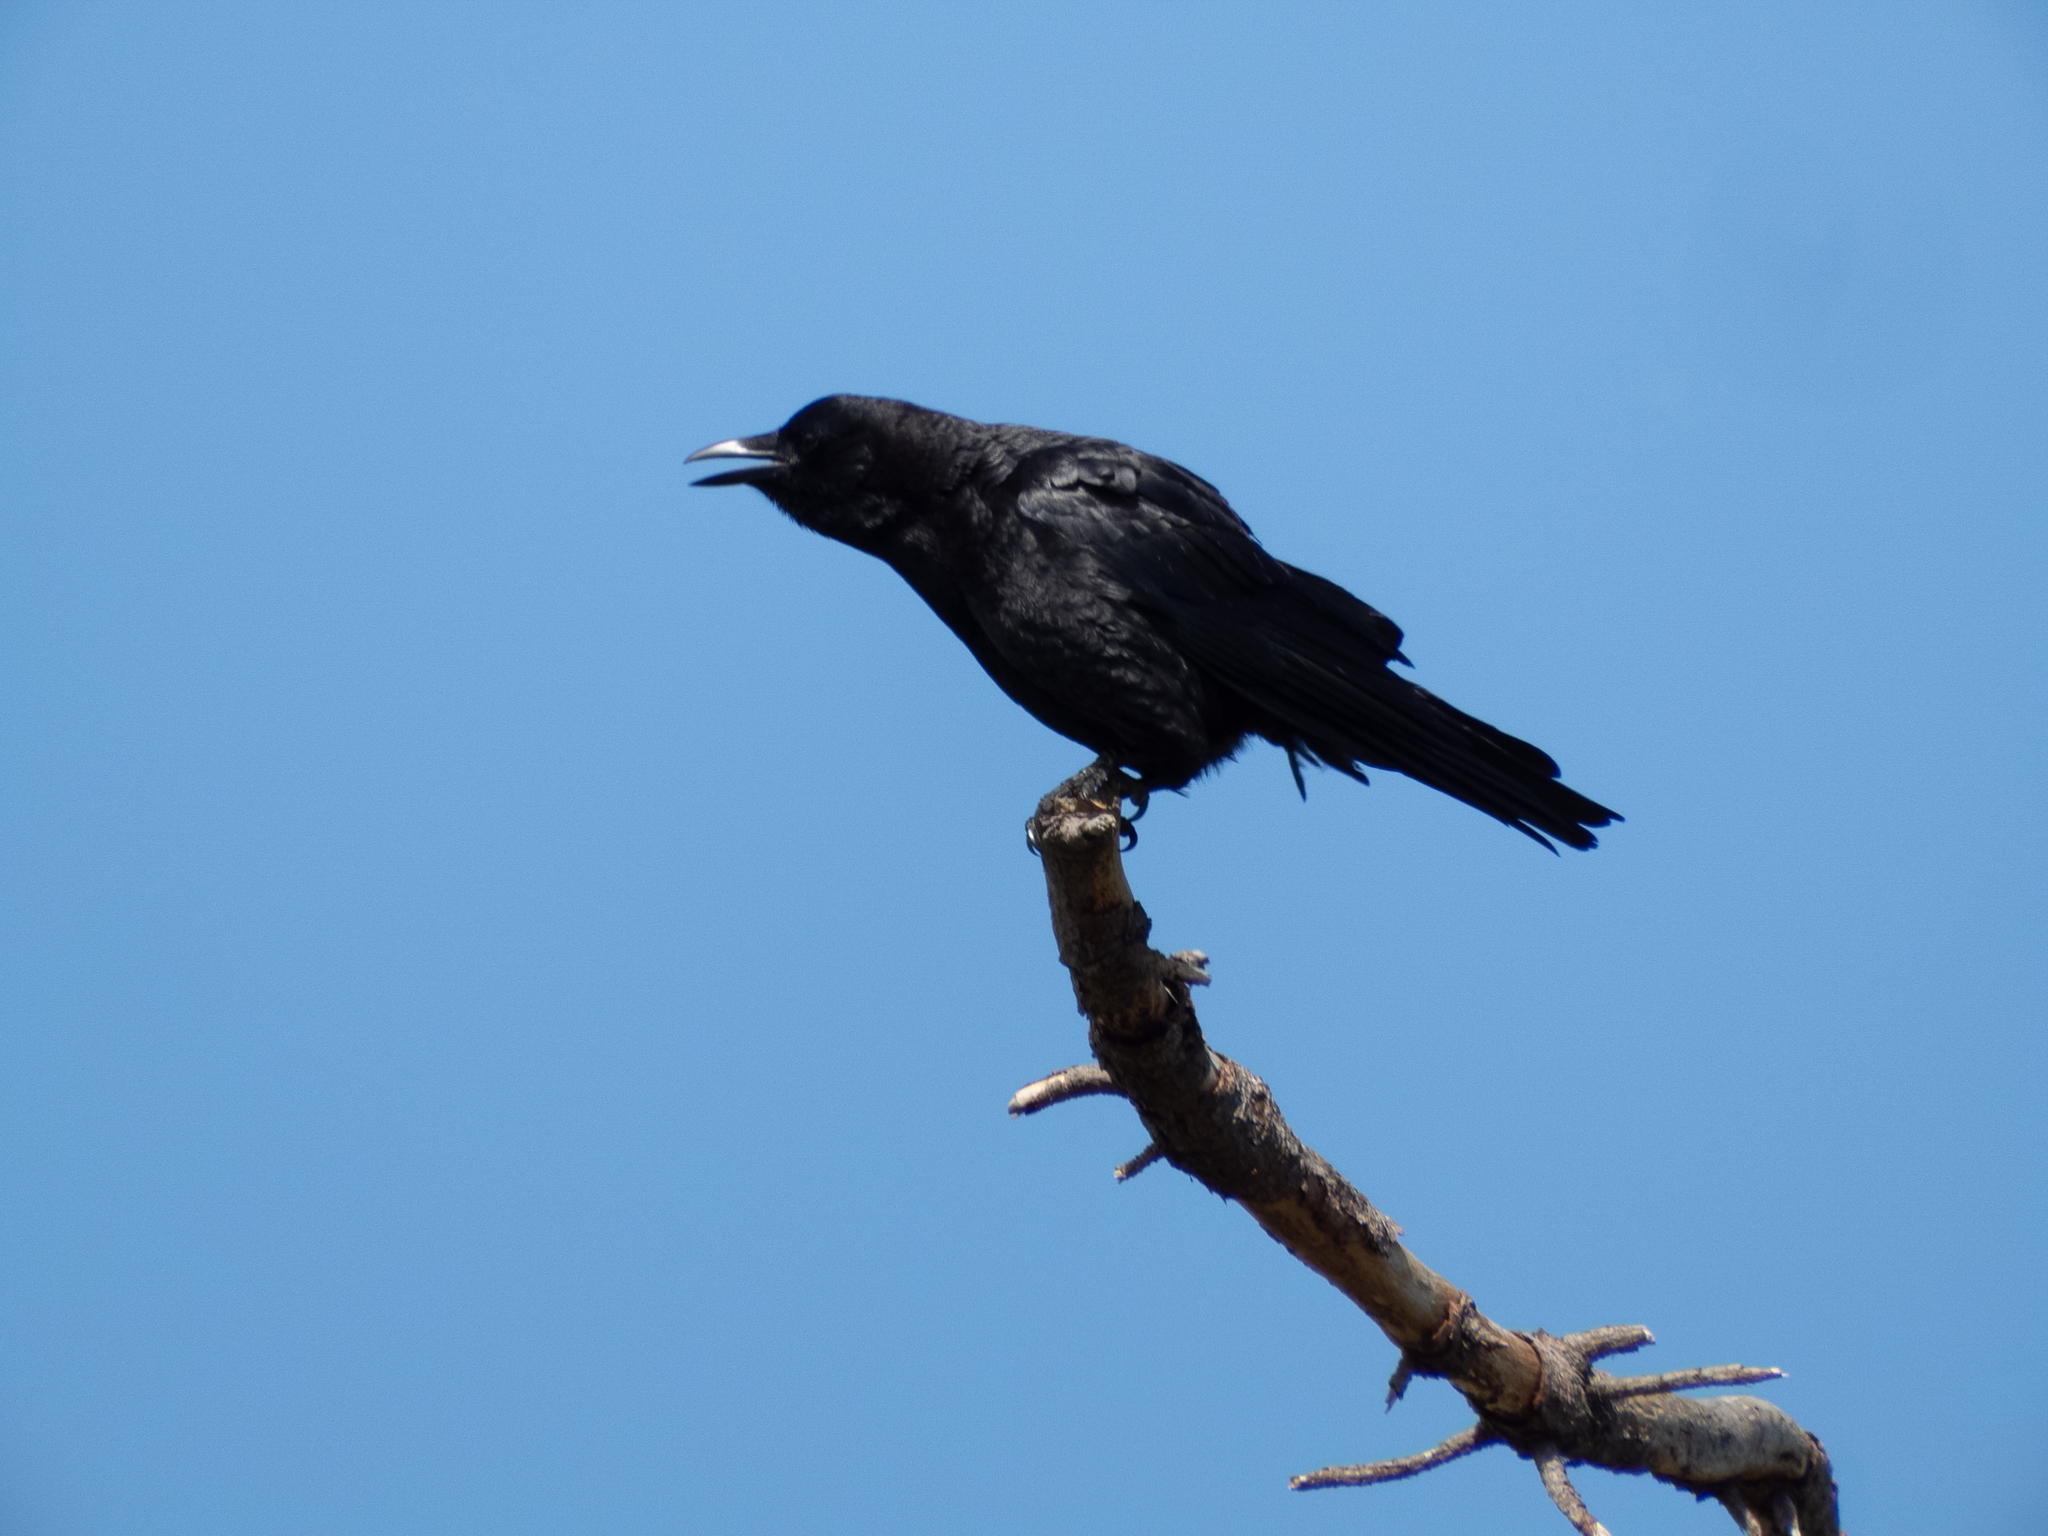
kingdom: Animalia
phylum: Chordata
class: Aves
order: Passeriformes
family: Corvidae
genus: Corvus
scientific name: Corvus brachyrhynchos
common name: American crow
